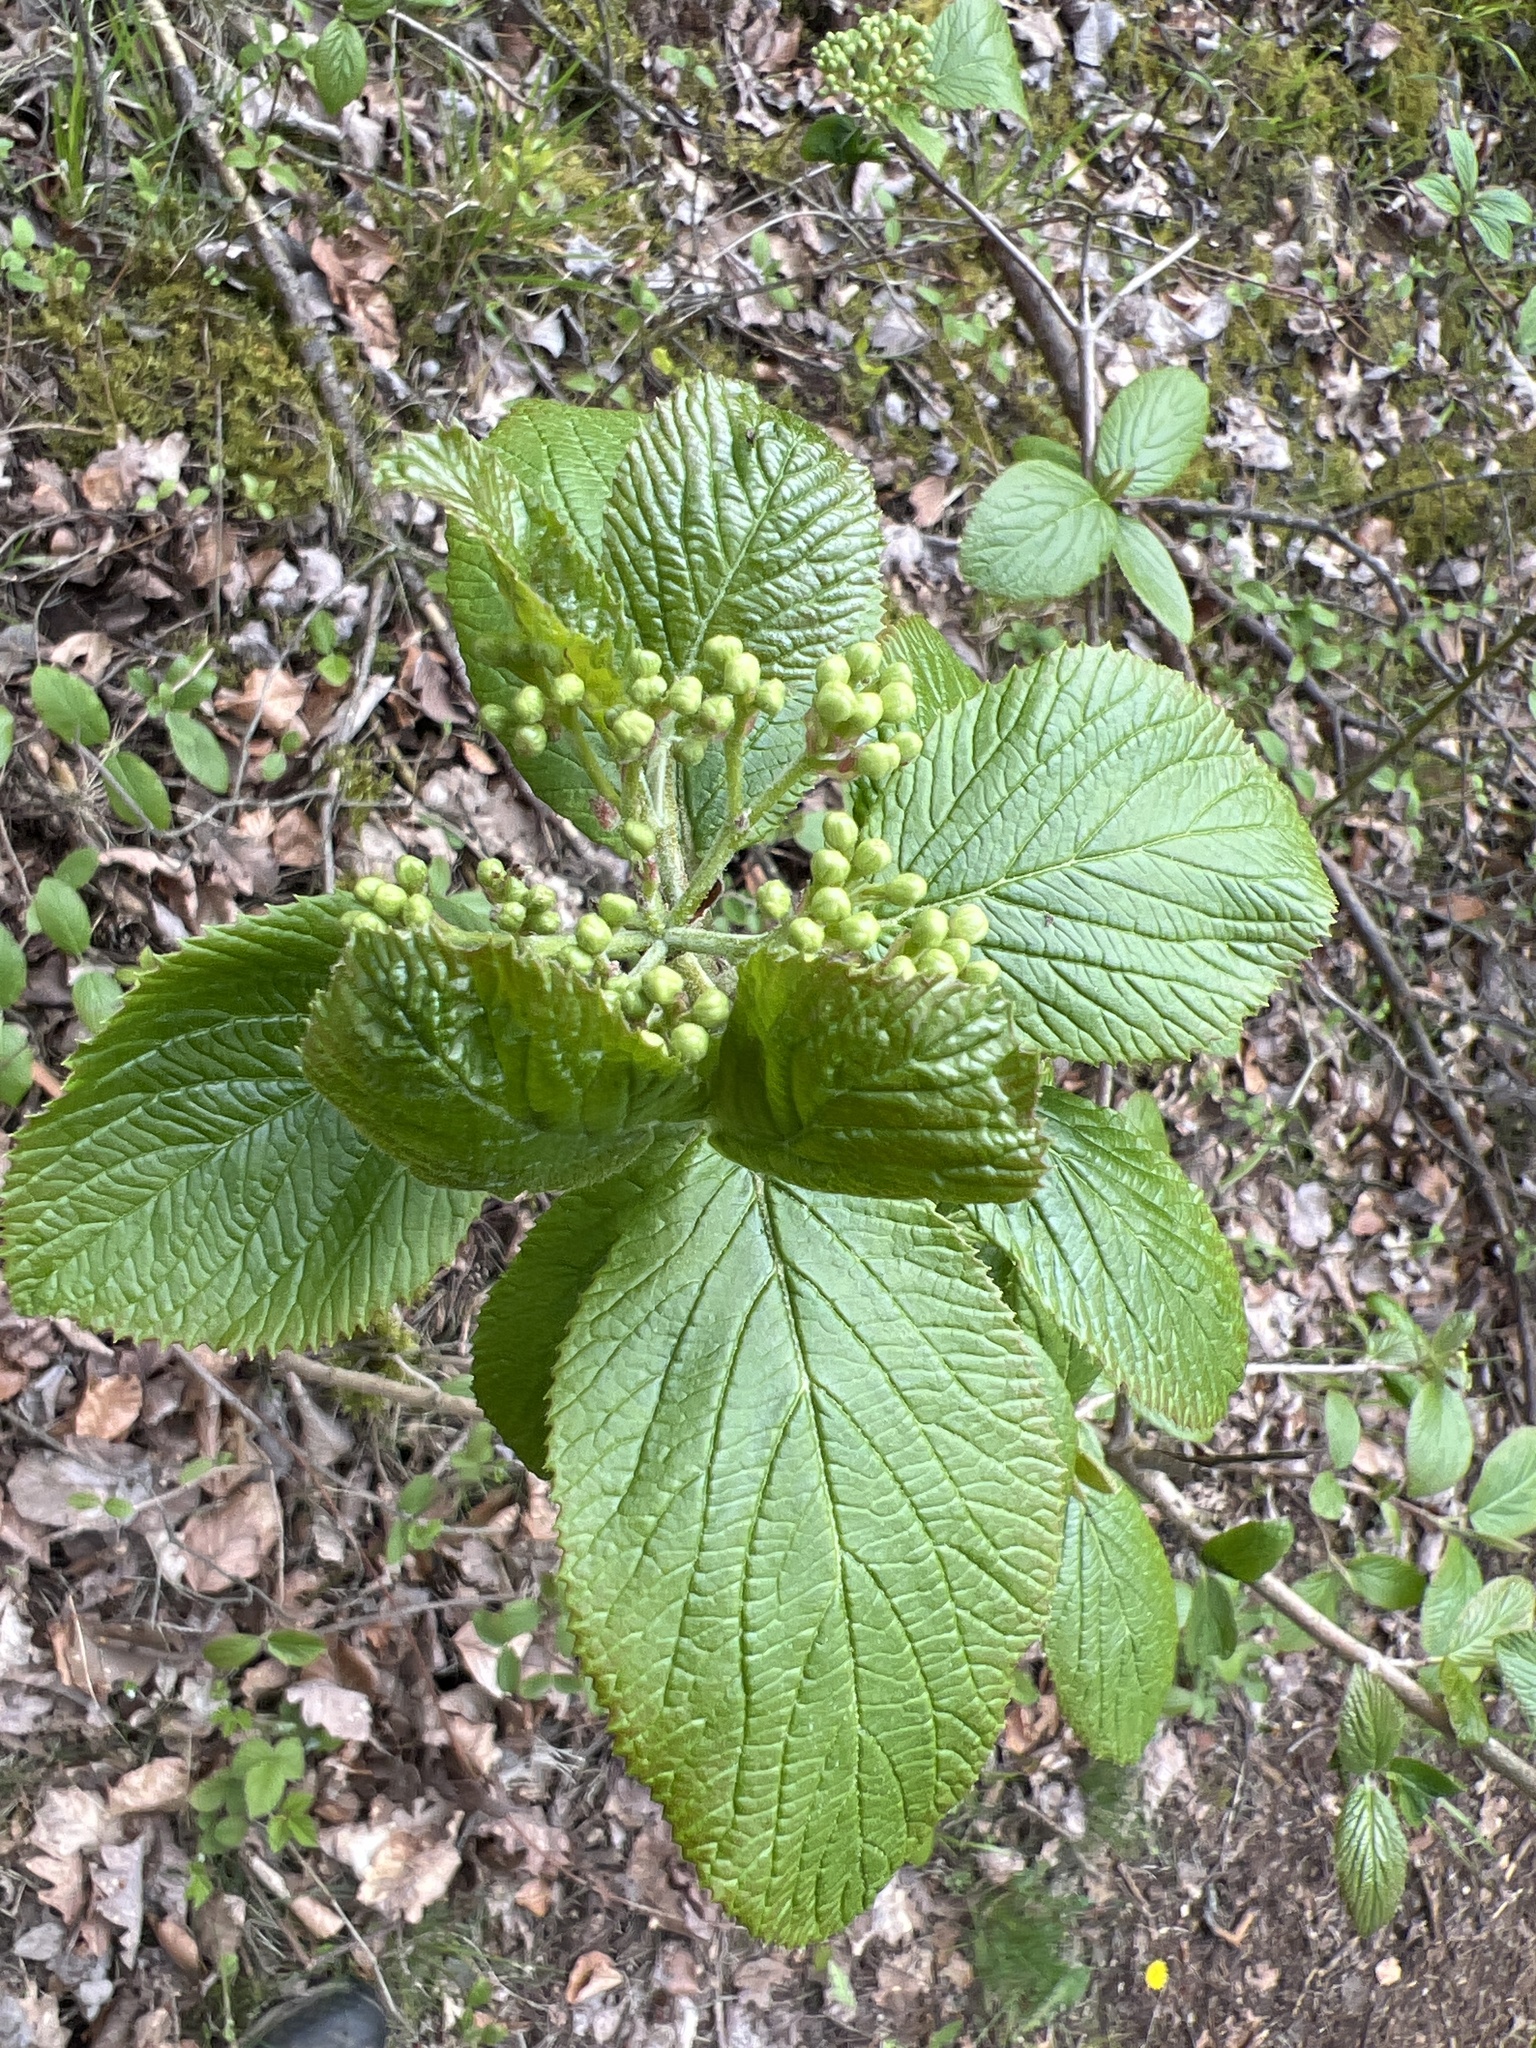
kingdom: Plantae
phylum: Tracheophyta
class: Magnoliopsida
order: Dipsacales
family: Viburnaceae
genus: Viburnum
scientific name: Viburnum lantana
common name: Wayfaring tree
